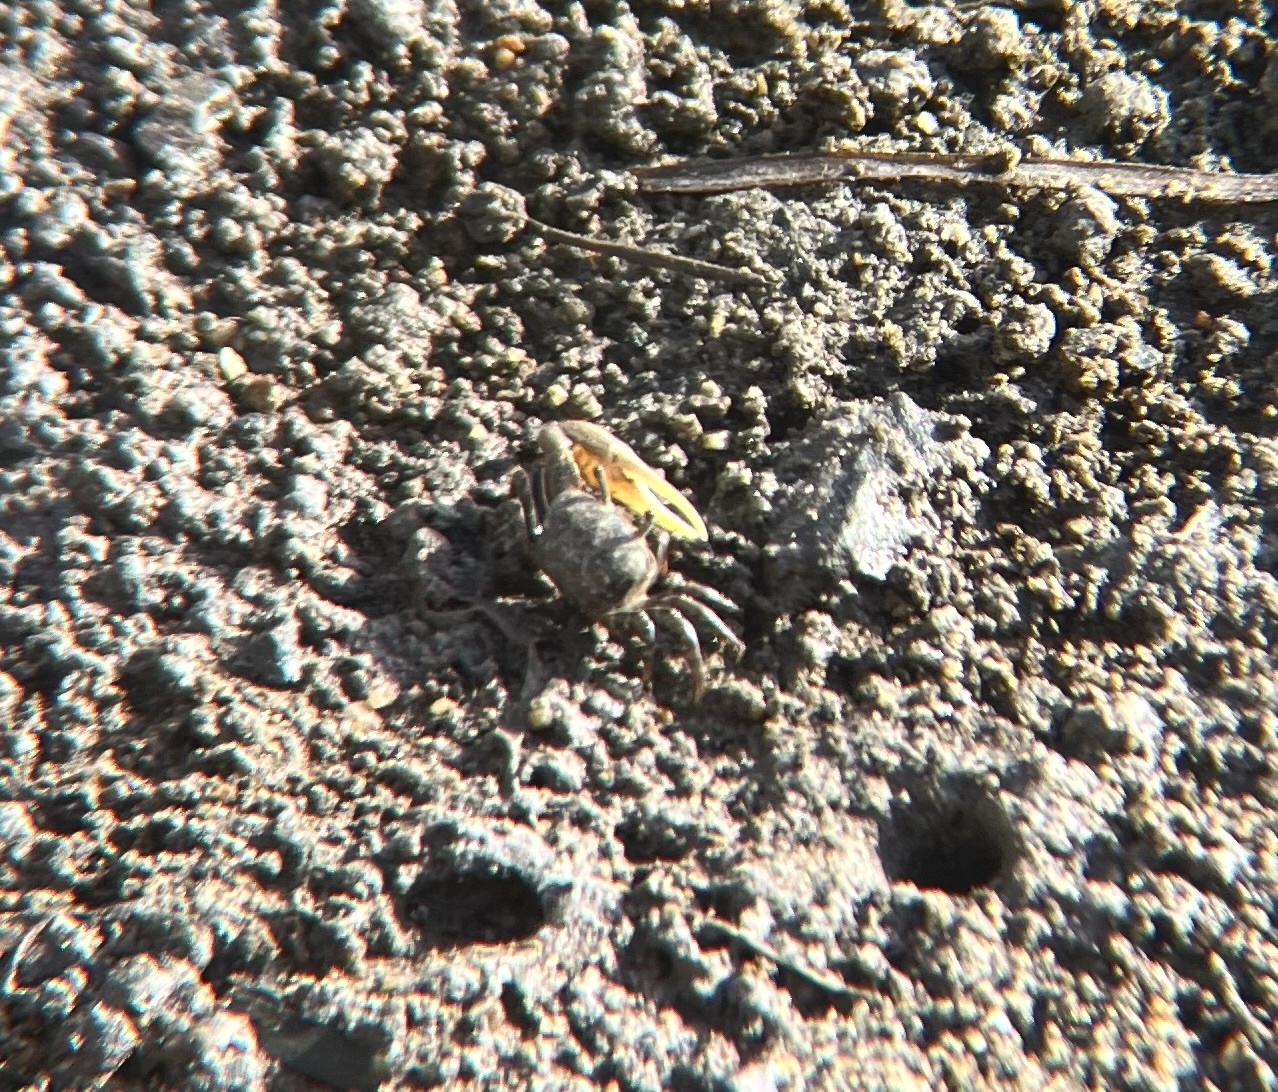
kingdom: Animalia
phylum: Arthropoda
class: Malacostraca
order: Decapoda
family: Ocypodidae
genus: Leptuca
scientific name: Leptuca crenulata
